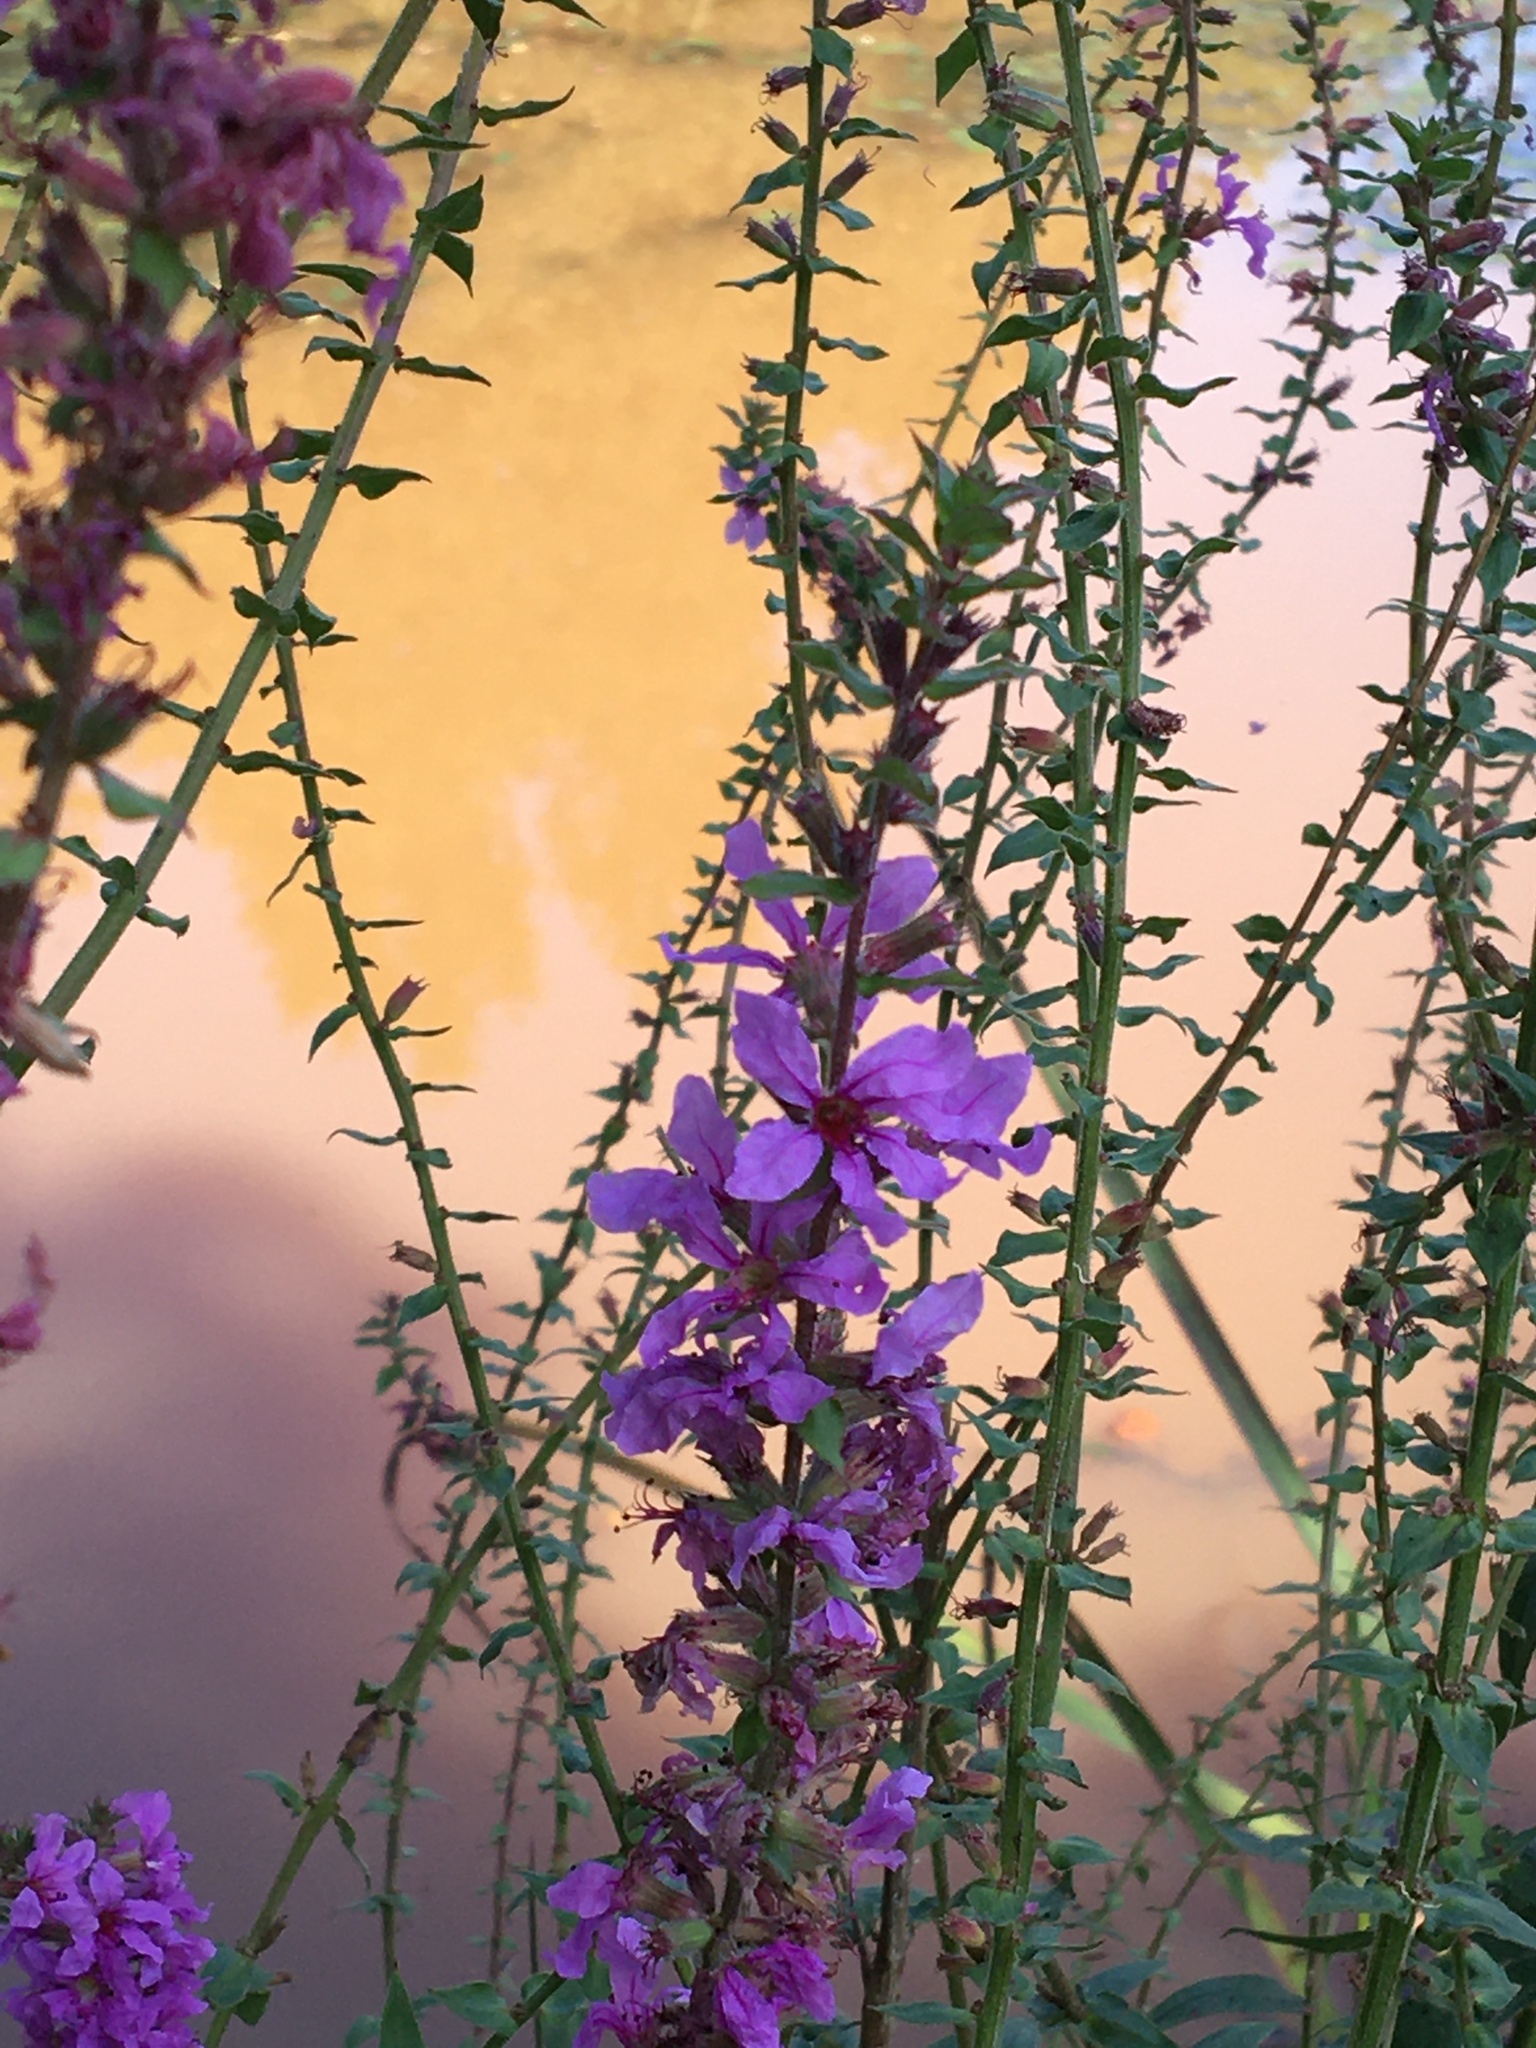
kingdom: Plantae
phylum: Tracheophyta
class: Magnoliopsida
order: Myrtales
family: Lythraceae
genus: Lythrum
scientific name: Lythrum salicaria
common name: Purple loosestrife
